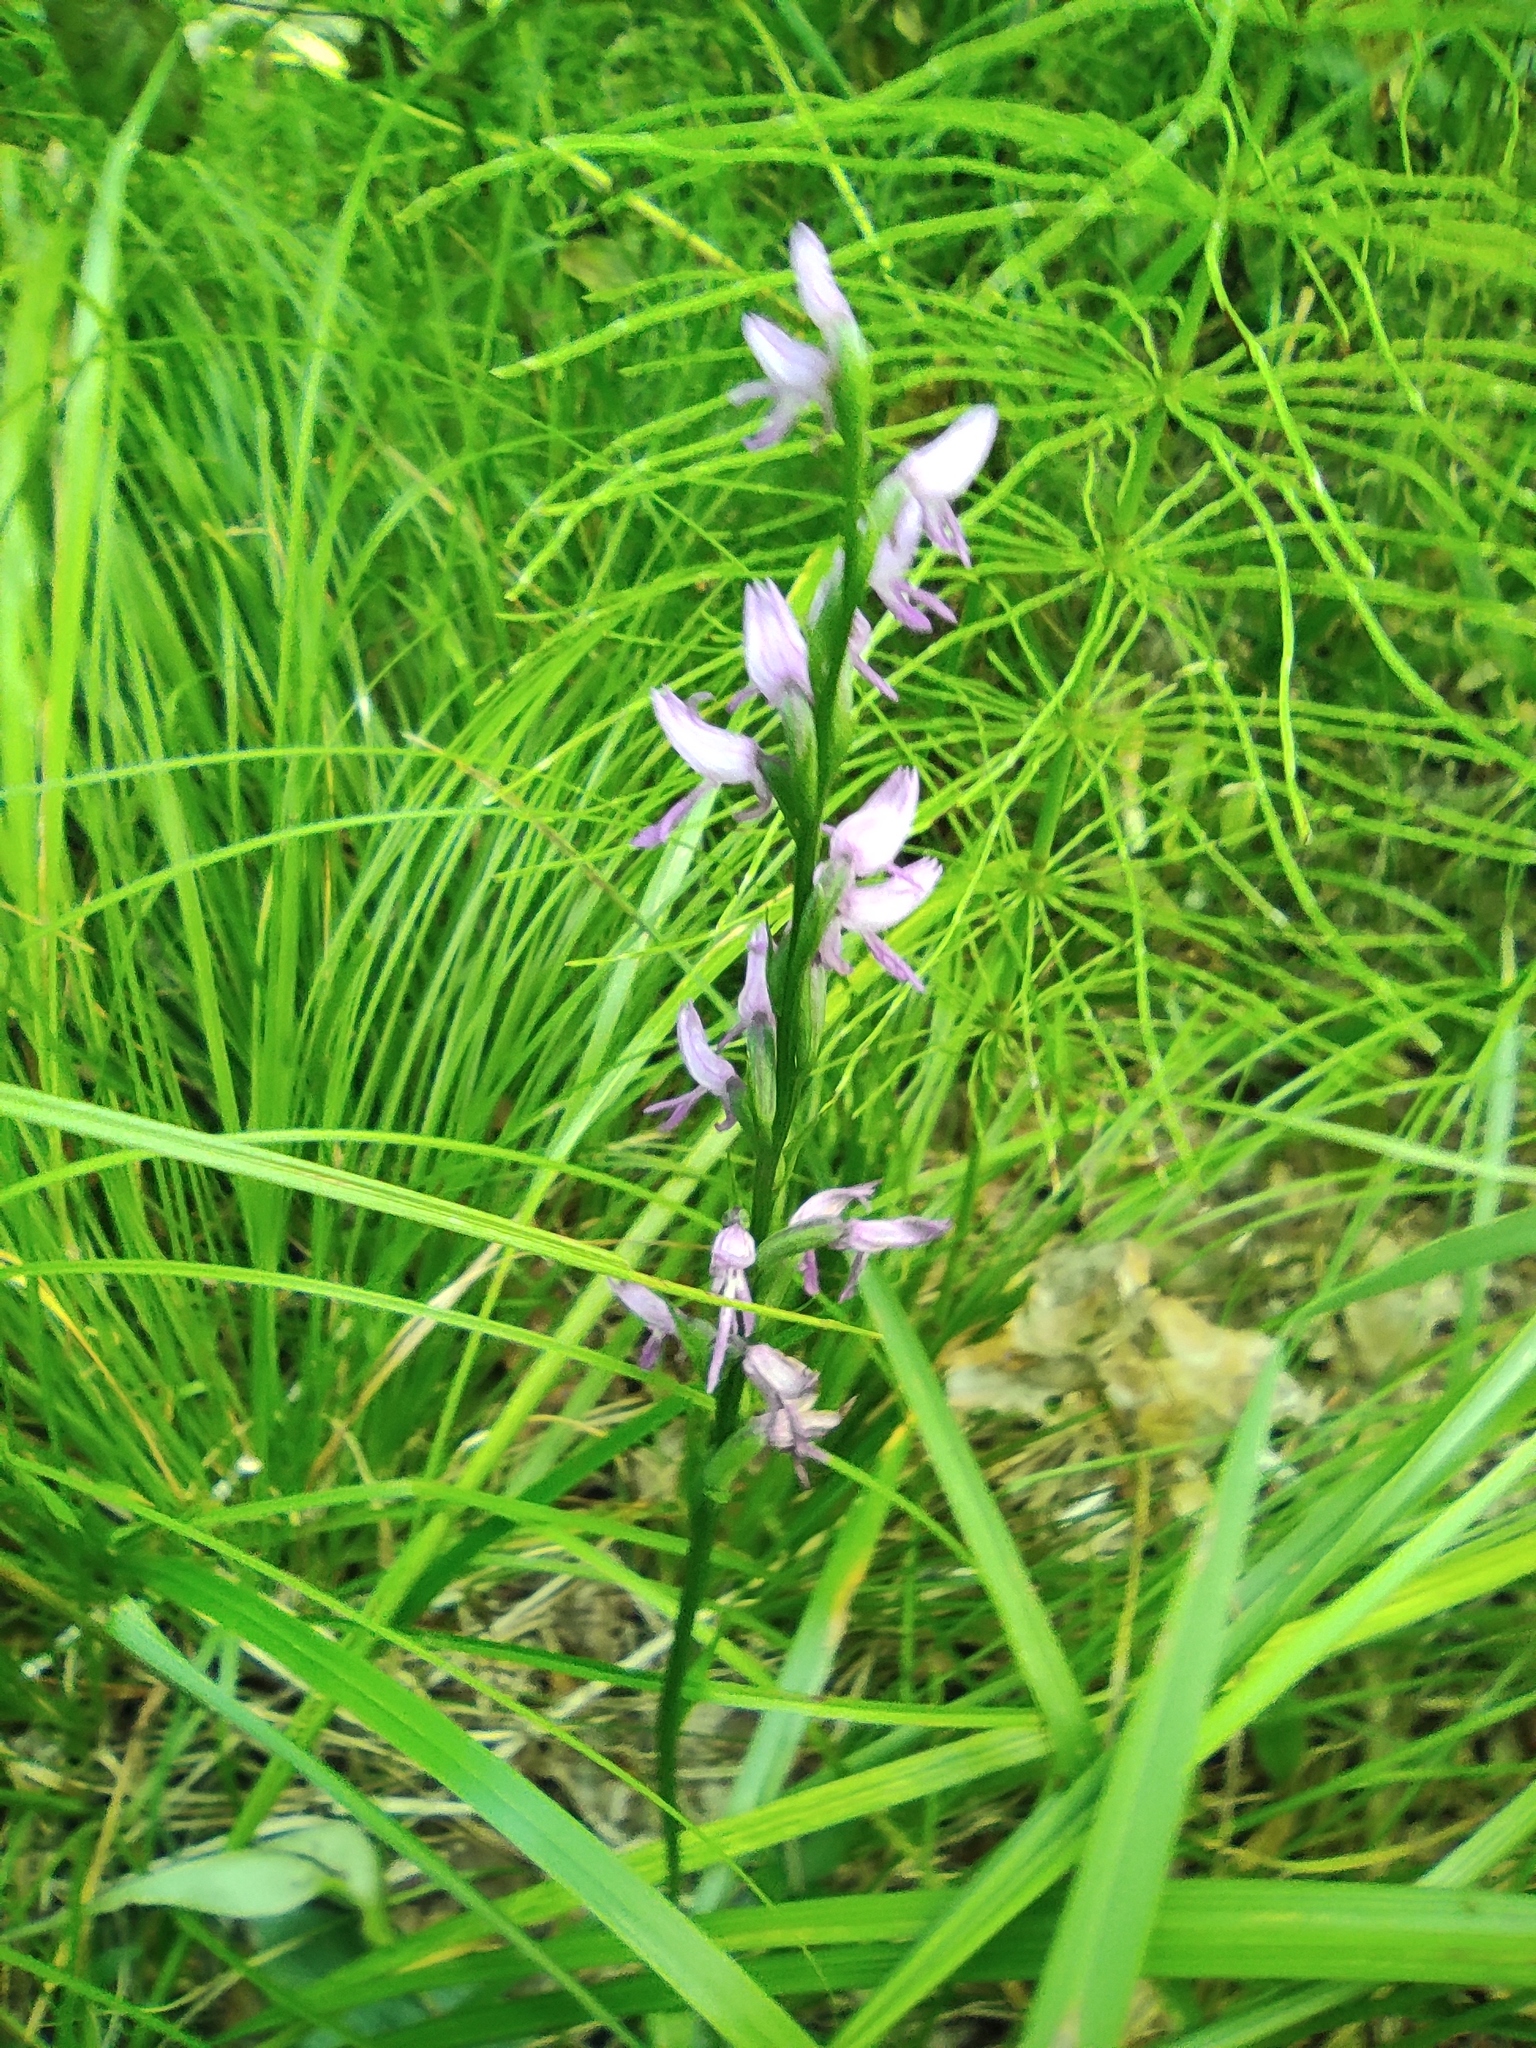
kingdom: Plantae
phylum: Tracheophyta
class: Liliopsida
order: Asparagales
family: Orchidaceae
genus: Hemipilia
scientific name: Hemipilia cucullata
